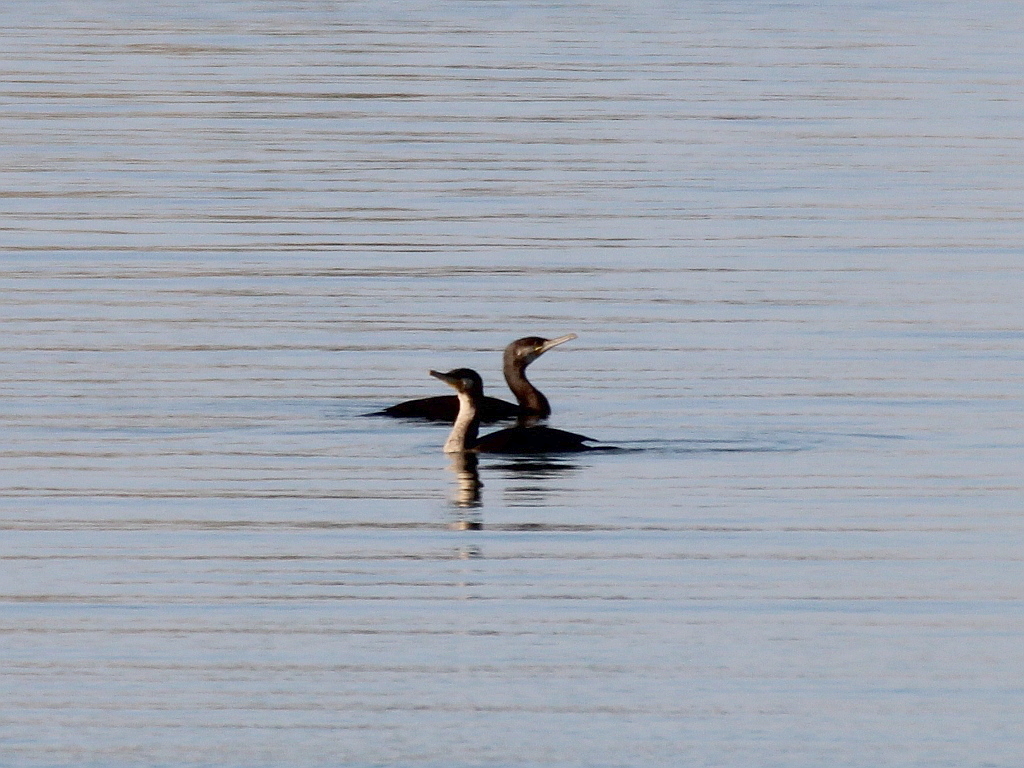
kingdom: Animalia
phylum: Chordata
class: Aves
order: Suliformes
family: Phalacrocoracidae
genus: Phalacrocorax
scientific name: Phalacrocorax carbo
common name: Great cormorant
